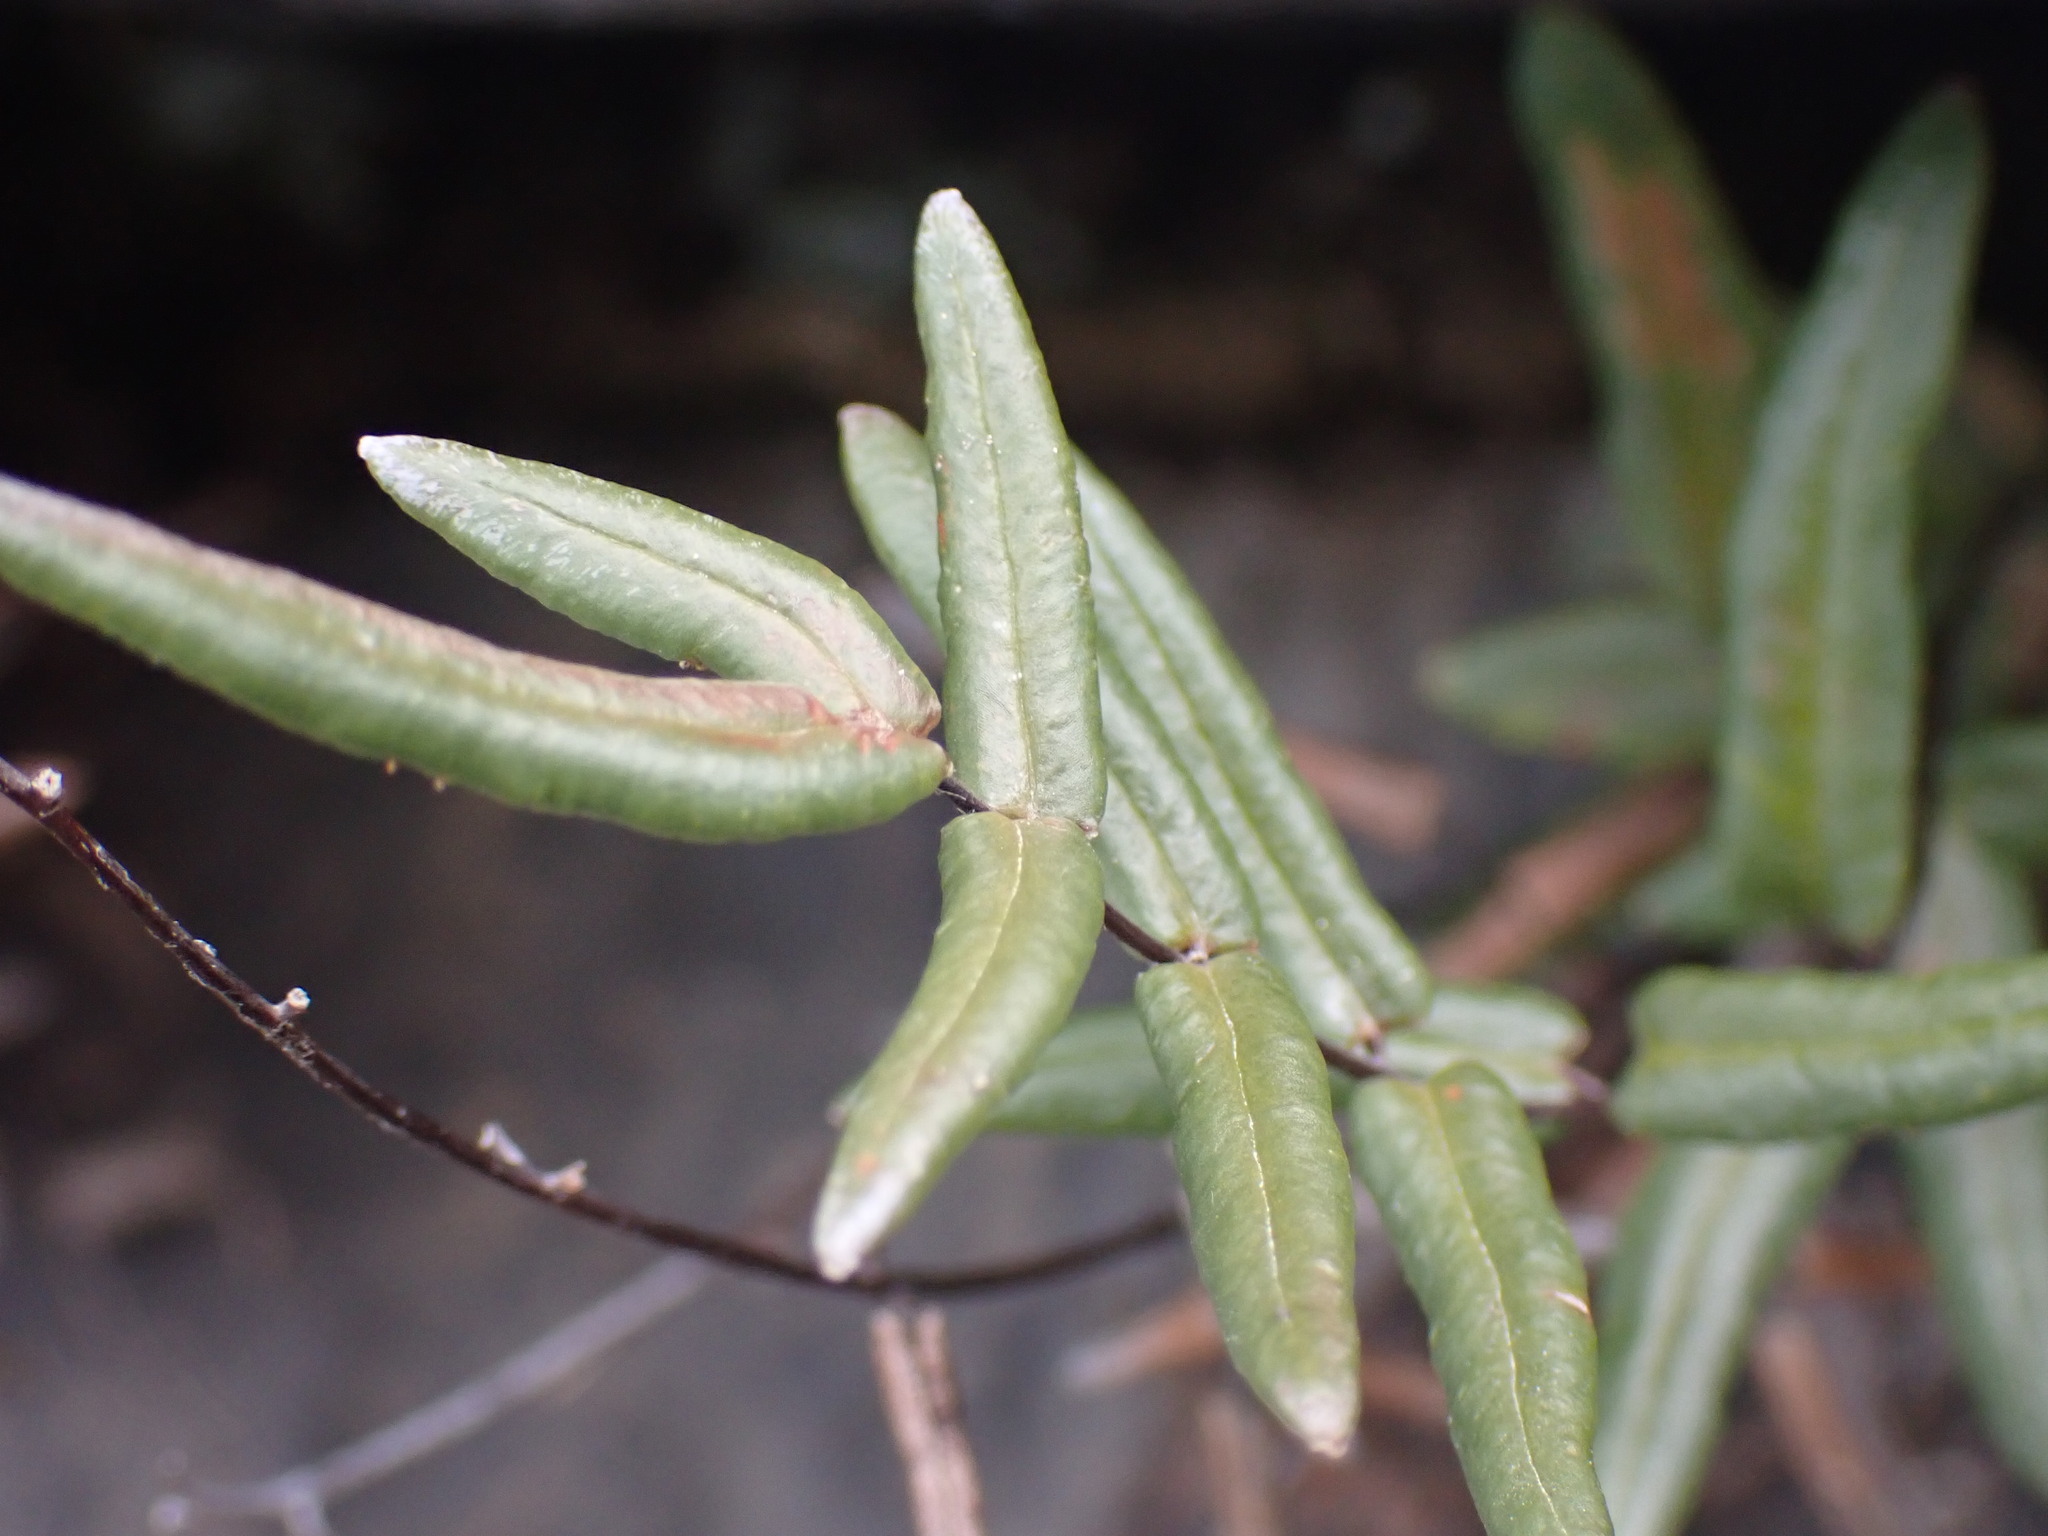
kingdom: Plantae
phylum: Tracheophyta
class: Polypodiopsida
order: Polypodiales
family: Pteridaceae
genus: Pellaea
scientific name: Pellaea gastonyi
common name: Gastony's cliffbrake
